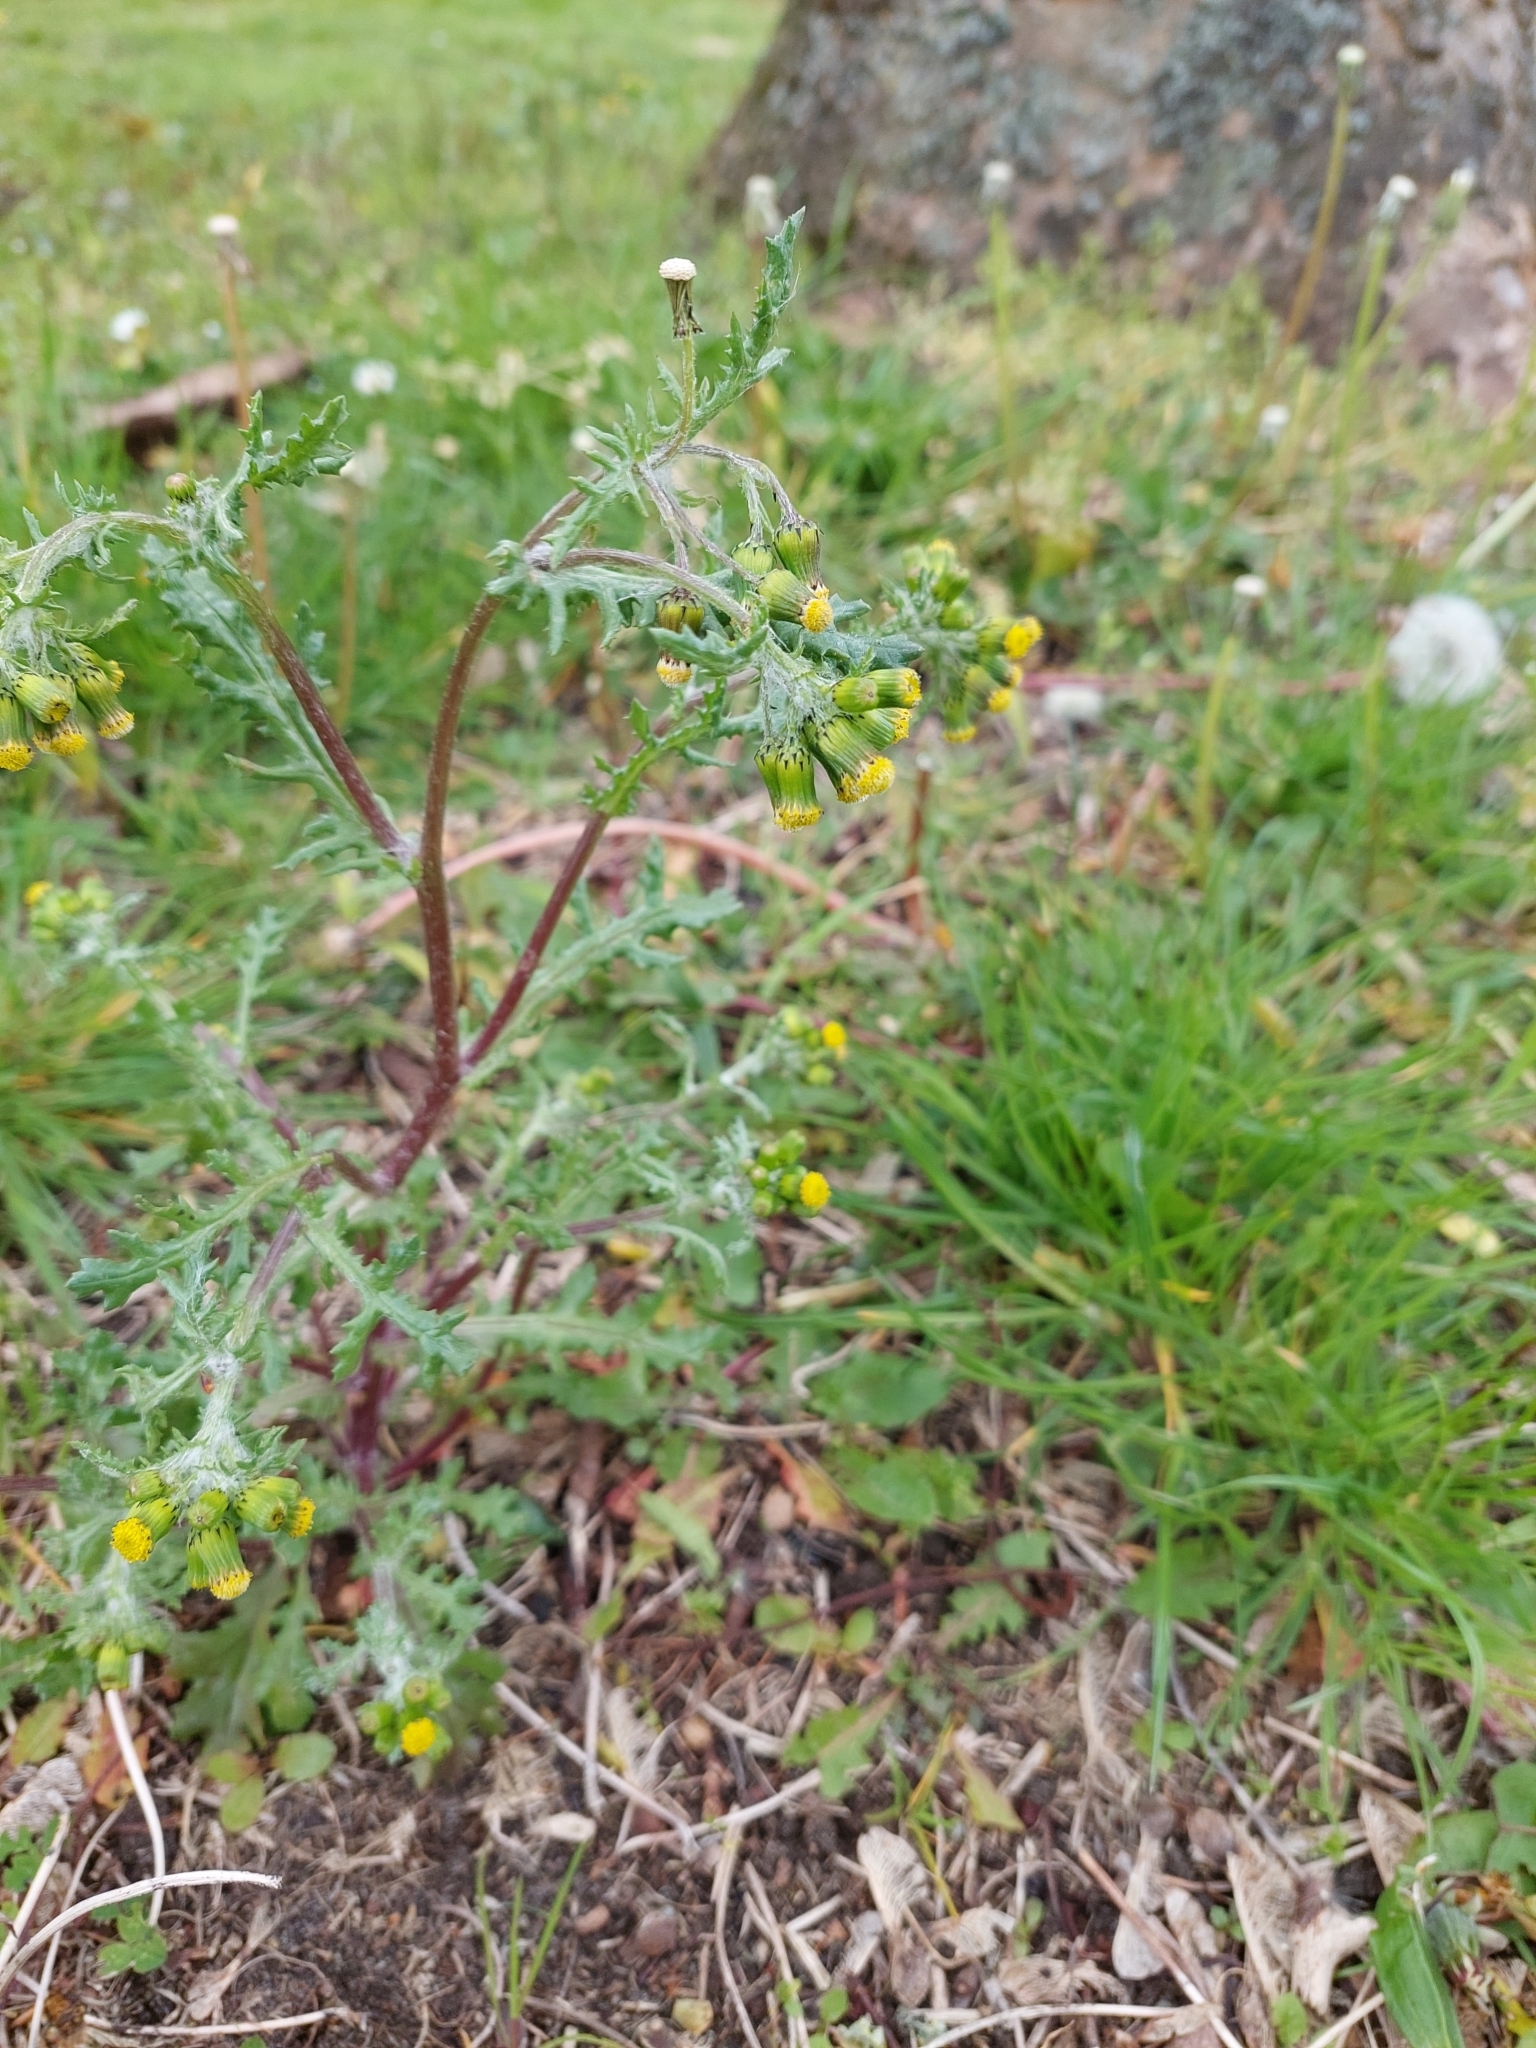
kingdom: Plantae
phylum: Tracheophyta
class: Magnoliopsida
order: Asterales
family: Asteraceae
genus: Senecio
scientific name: Senecio vulgaris
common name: Old-man-in-the-spring
